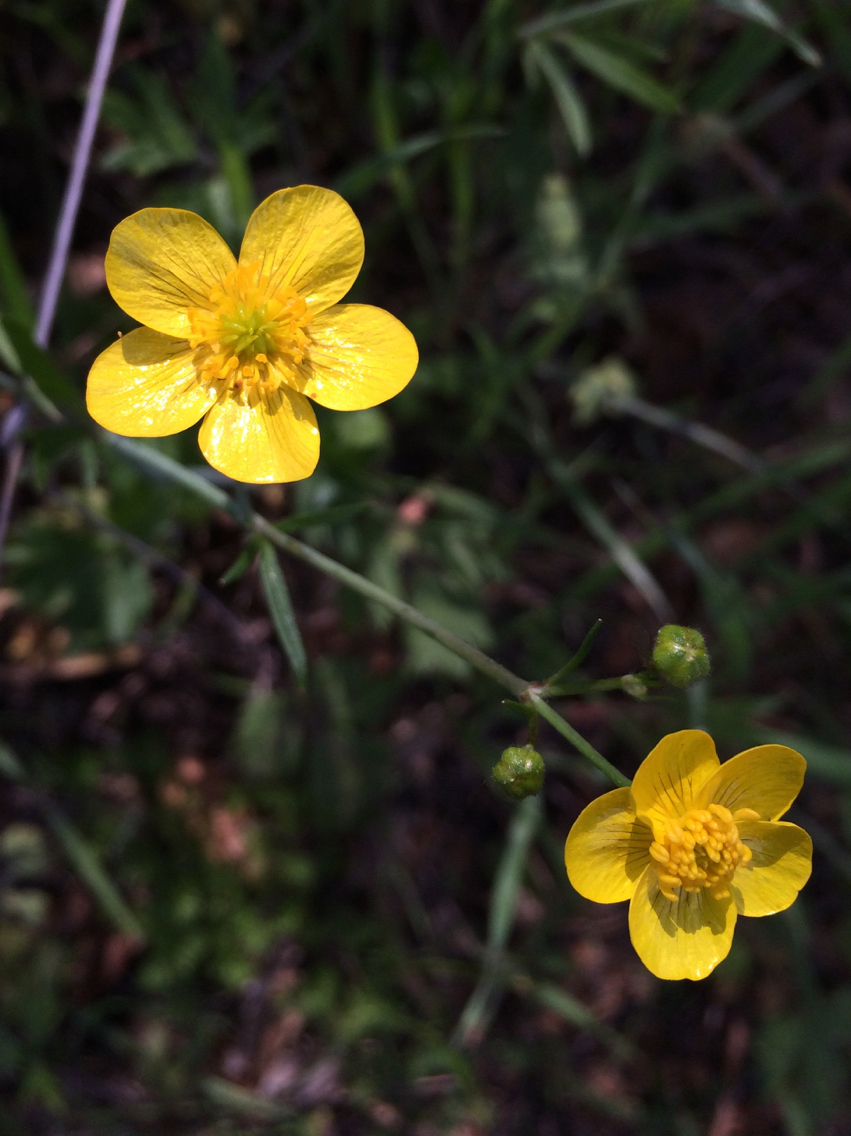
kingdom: Plantae
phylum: Tracheophyta
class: Magnoliopsida
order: Ranunculales
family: Ranunculaceae
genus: Ranunculus
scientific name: Ranunculus occidentalis
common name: Western buttercup
